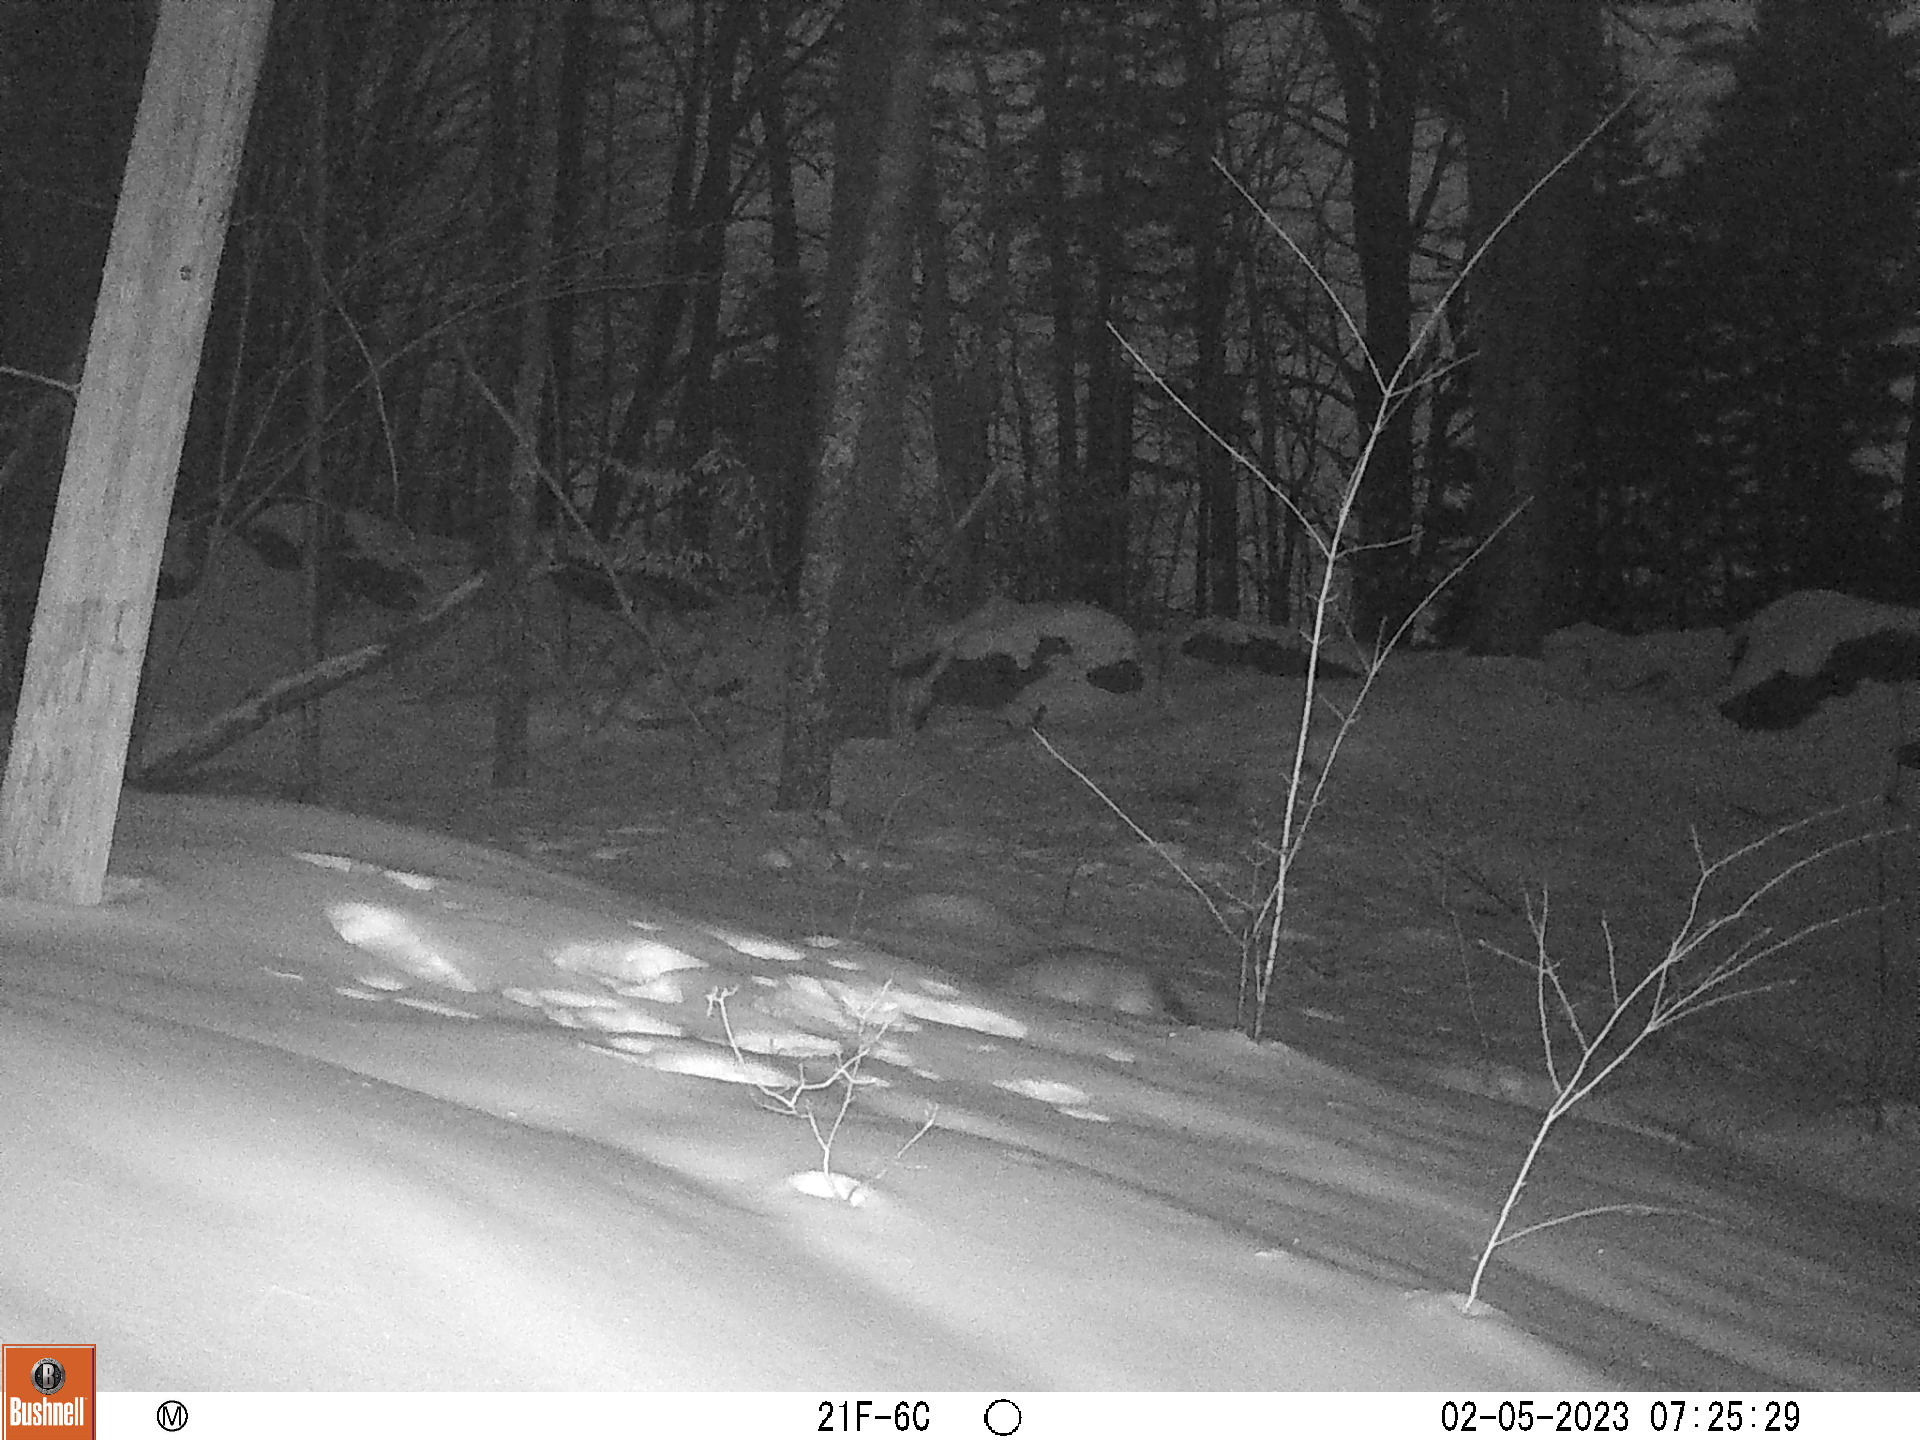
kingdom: Animalia
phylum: Chordata
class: Mammalia
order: Carnivora
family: Canidae
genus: Urocyon
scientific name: Urocyon cinereoargenteus
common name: Gray fox
